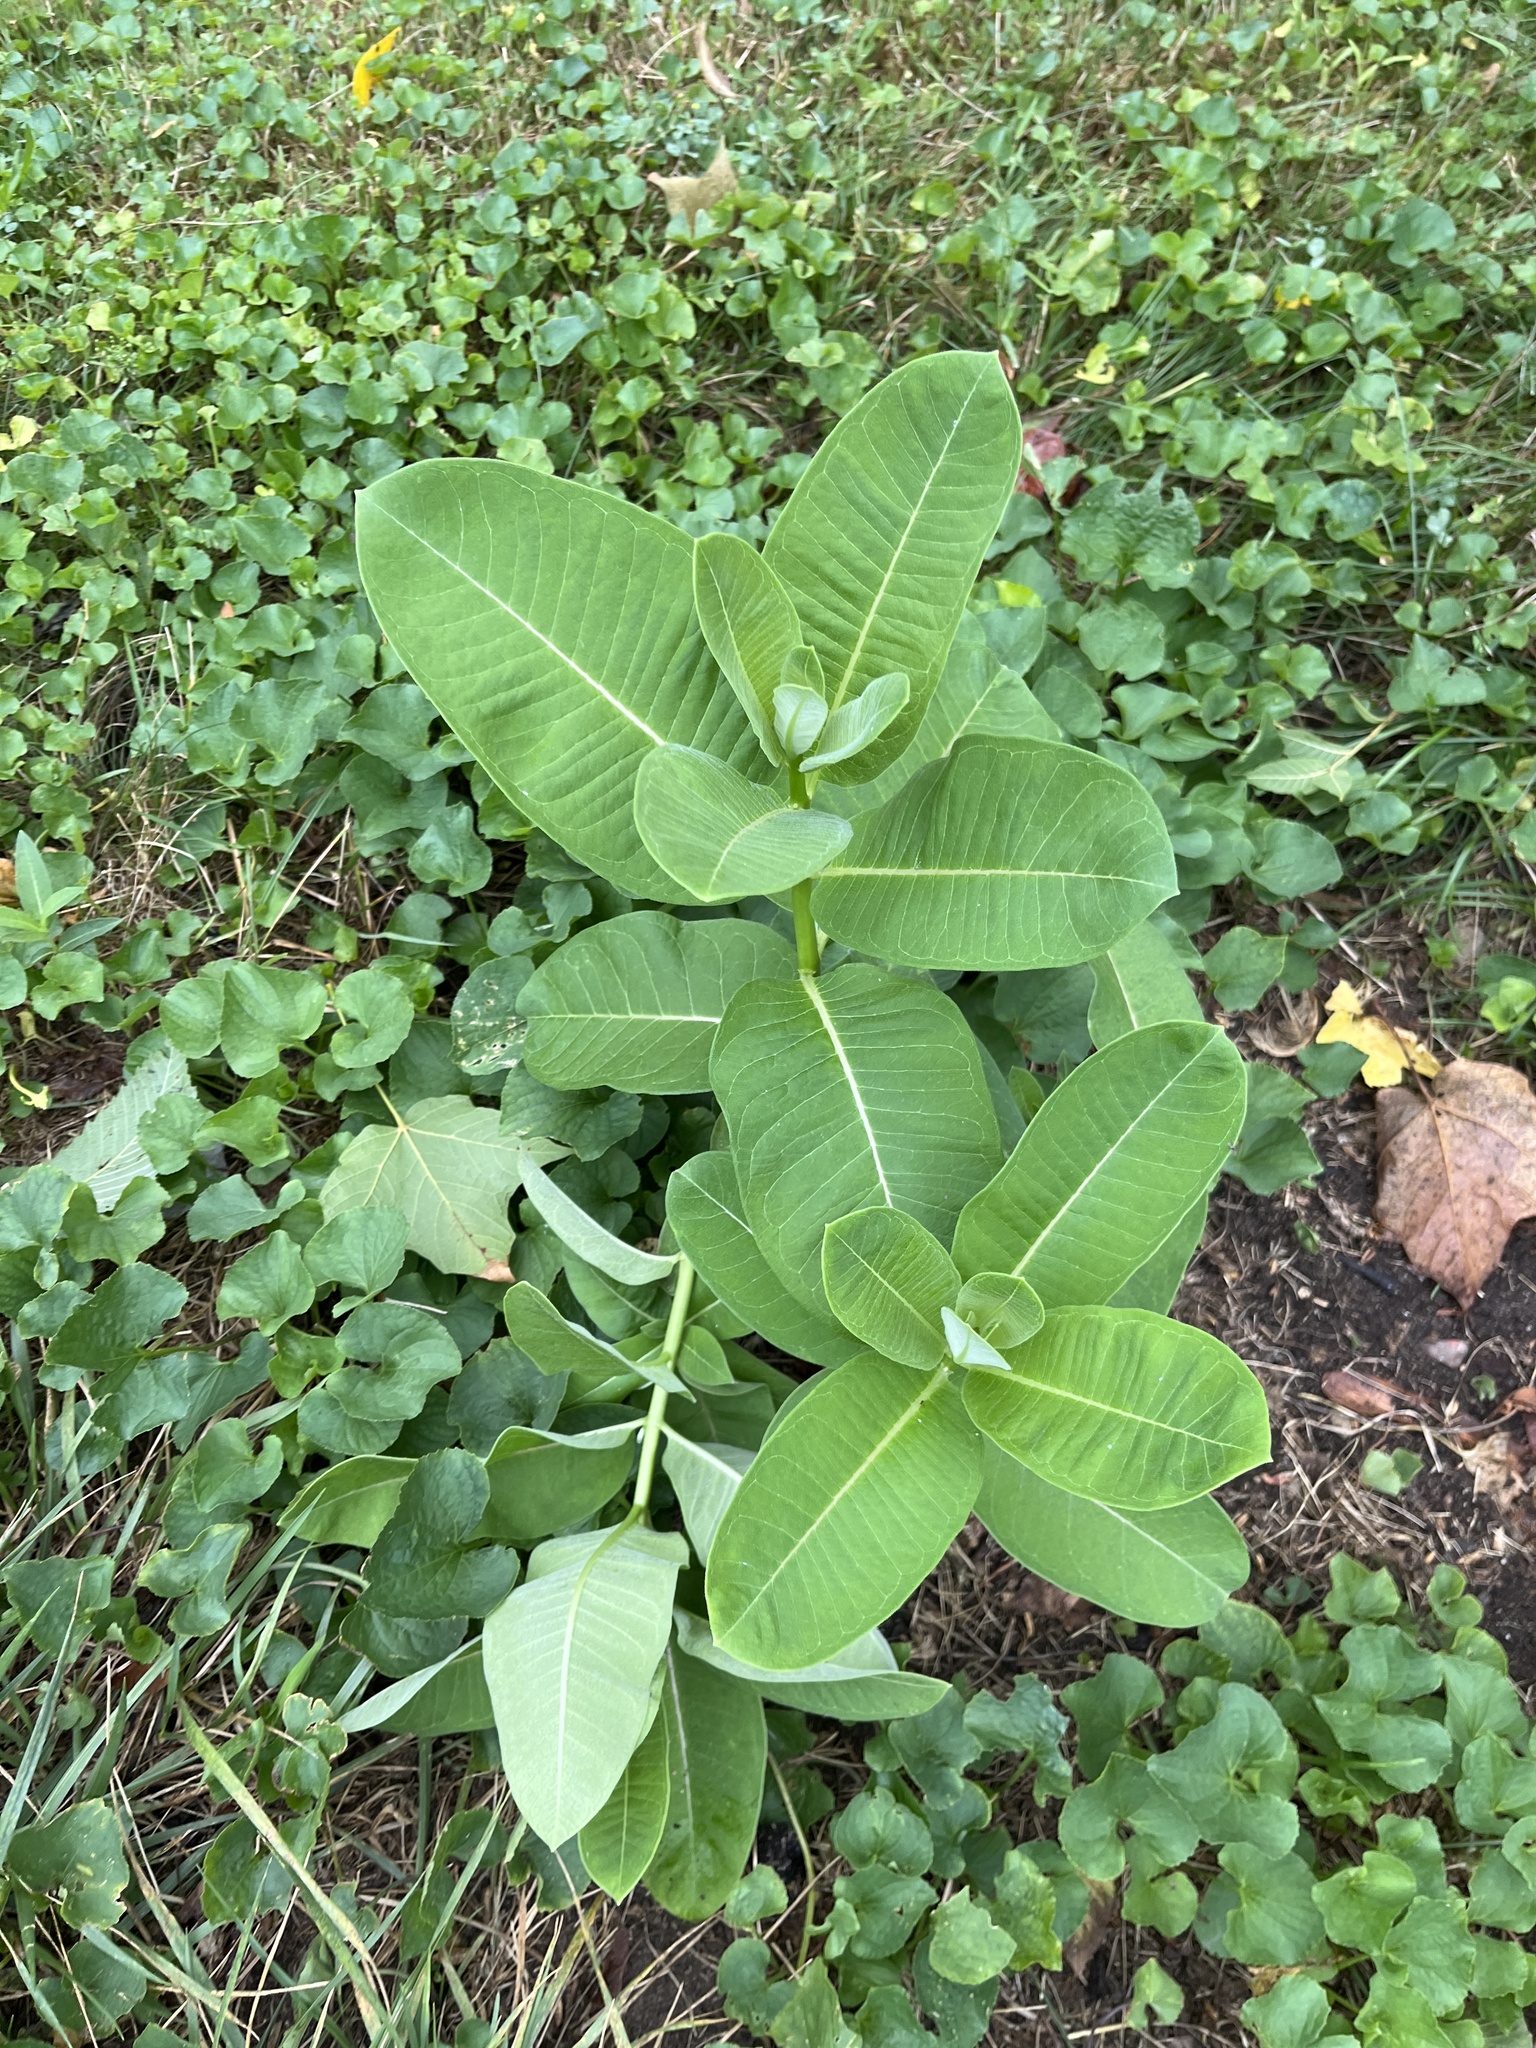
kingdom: Plantae
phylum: Tracheophyta
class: Magnoliopsida
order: Gentianales
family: Apocynaceae
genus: Asclepias
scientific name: Asclepias syriaca
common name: Common milkweed
